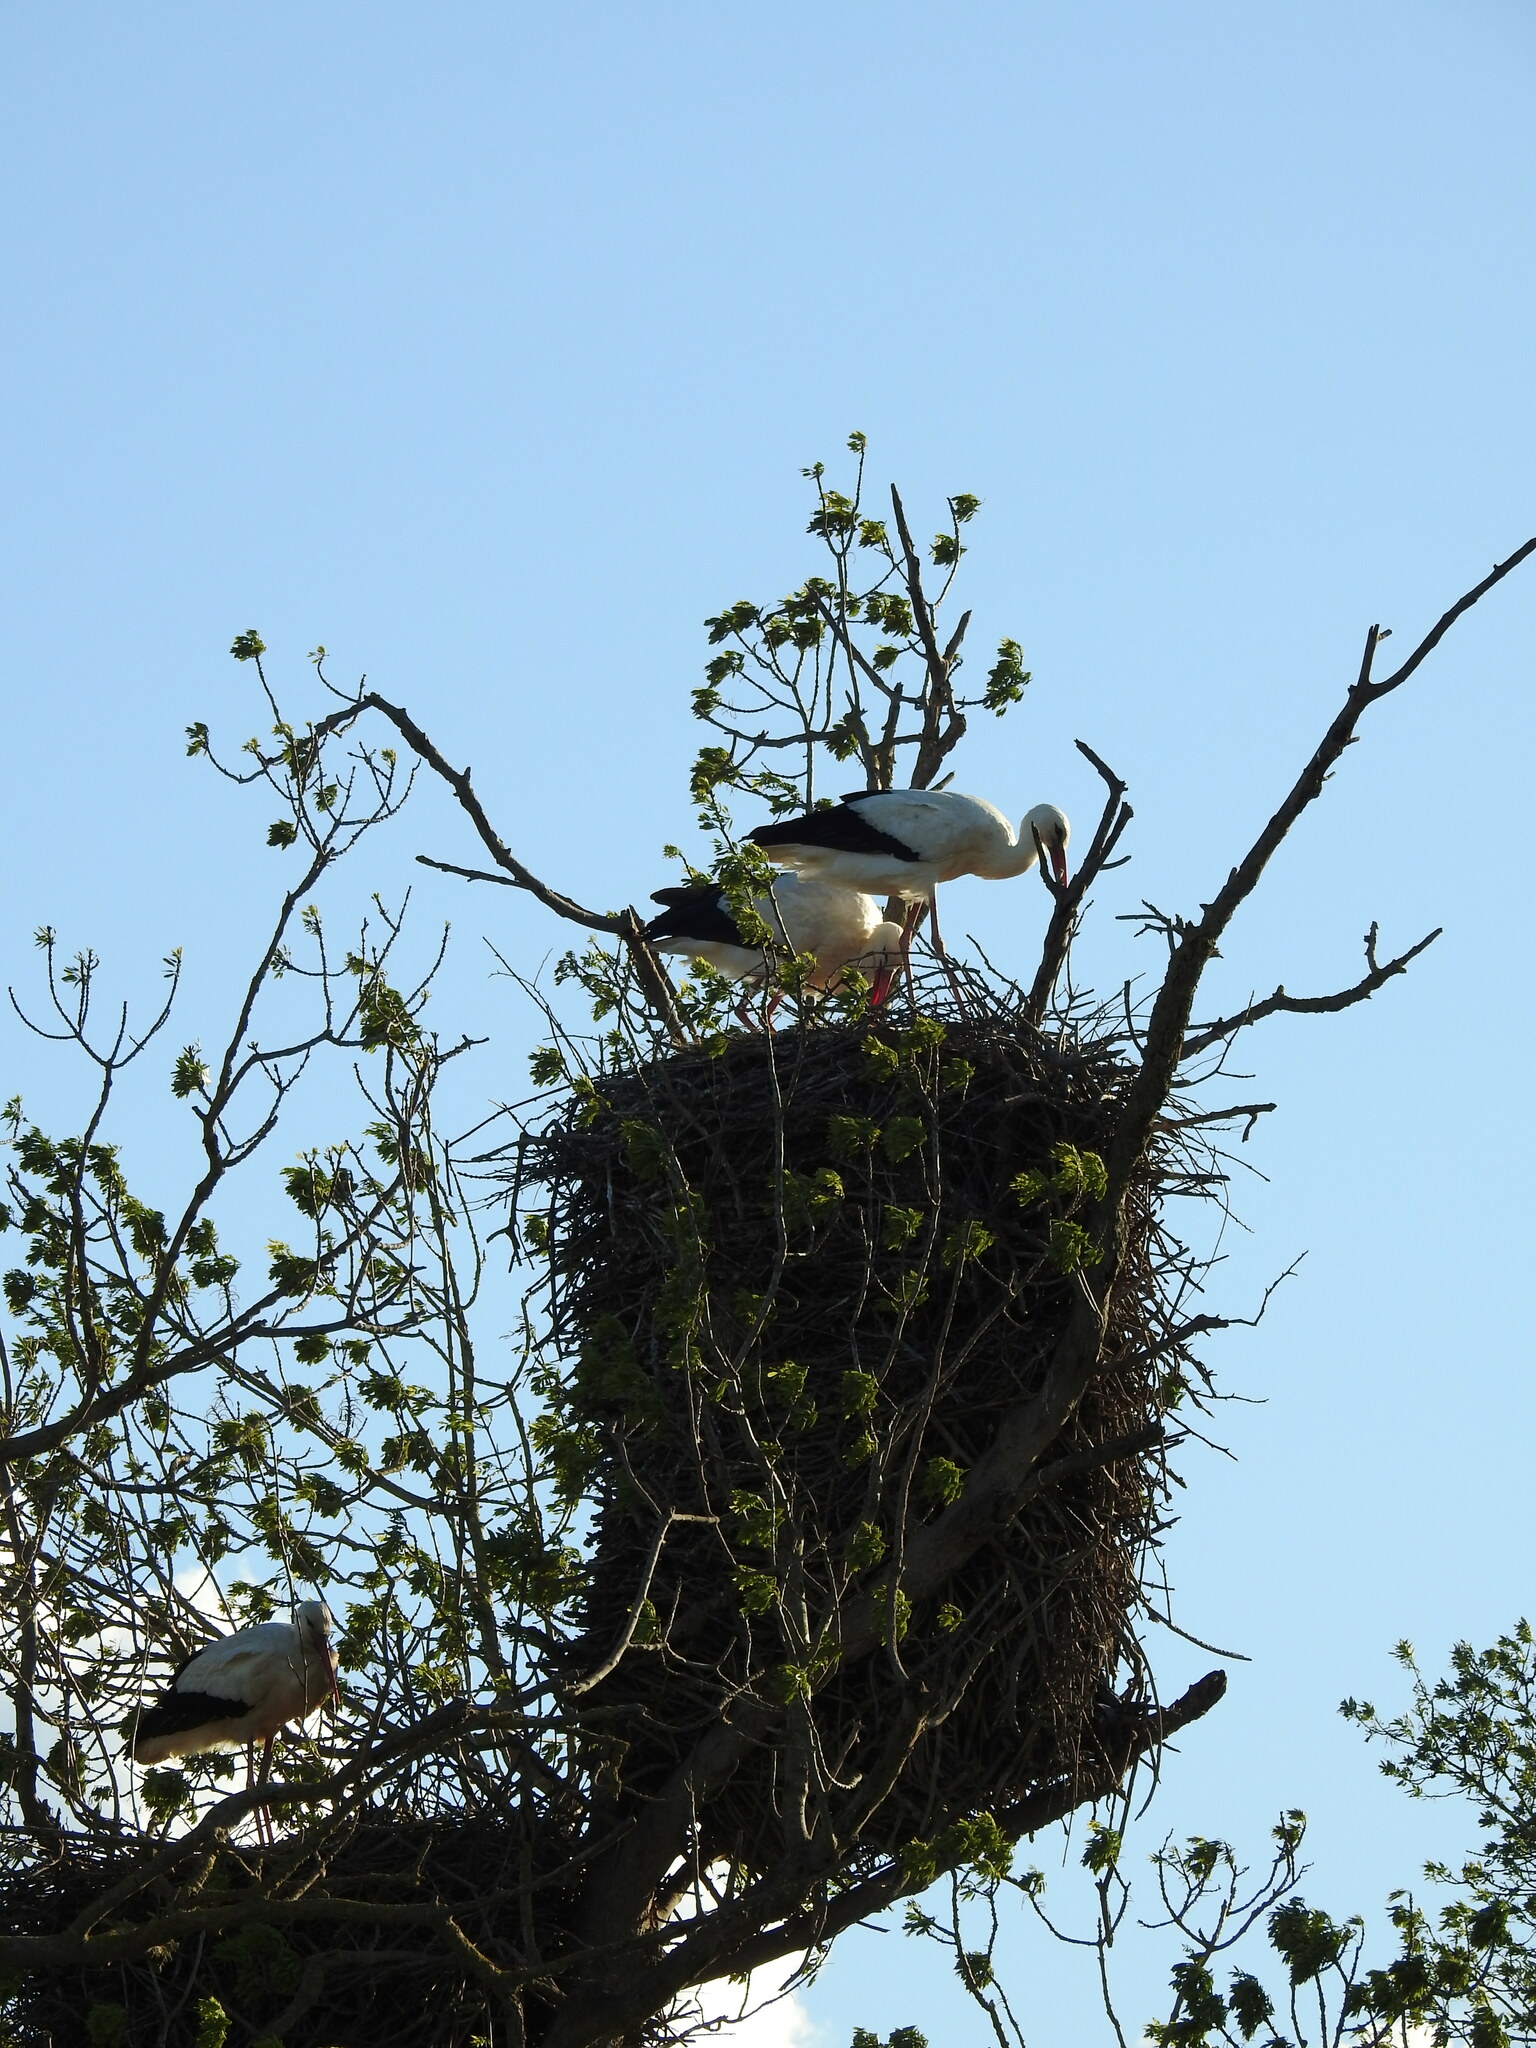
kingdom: Animalia
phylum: Chordata
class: Aves
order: Ciconiiformes
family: Ciconiidae
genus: Ciconia
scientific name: Ciconia ciconia
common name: White stork
